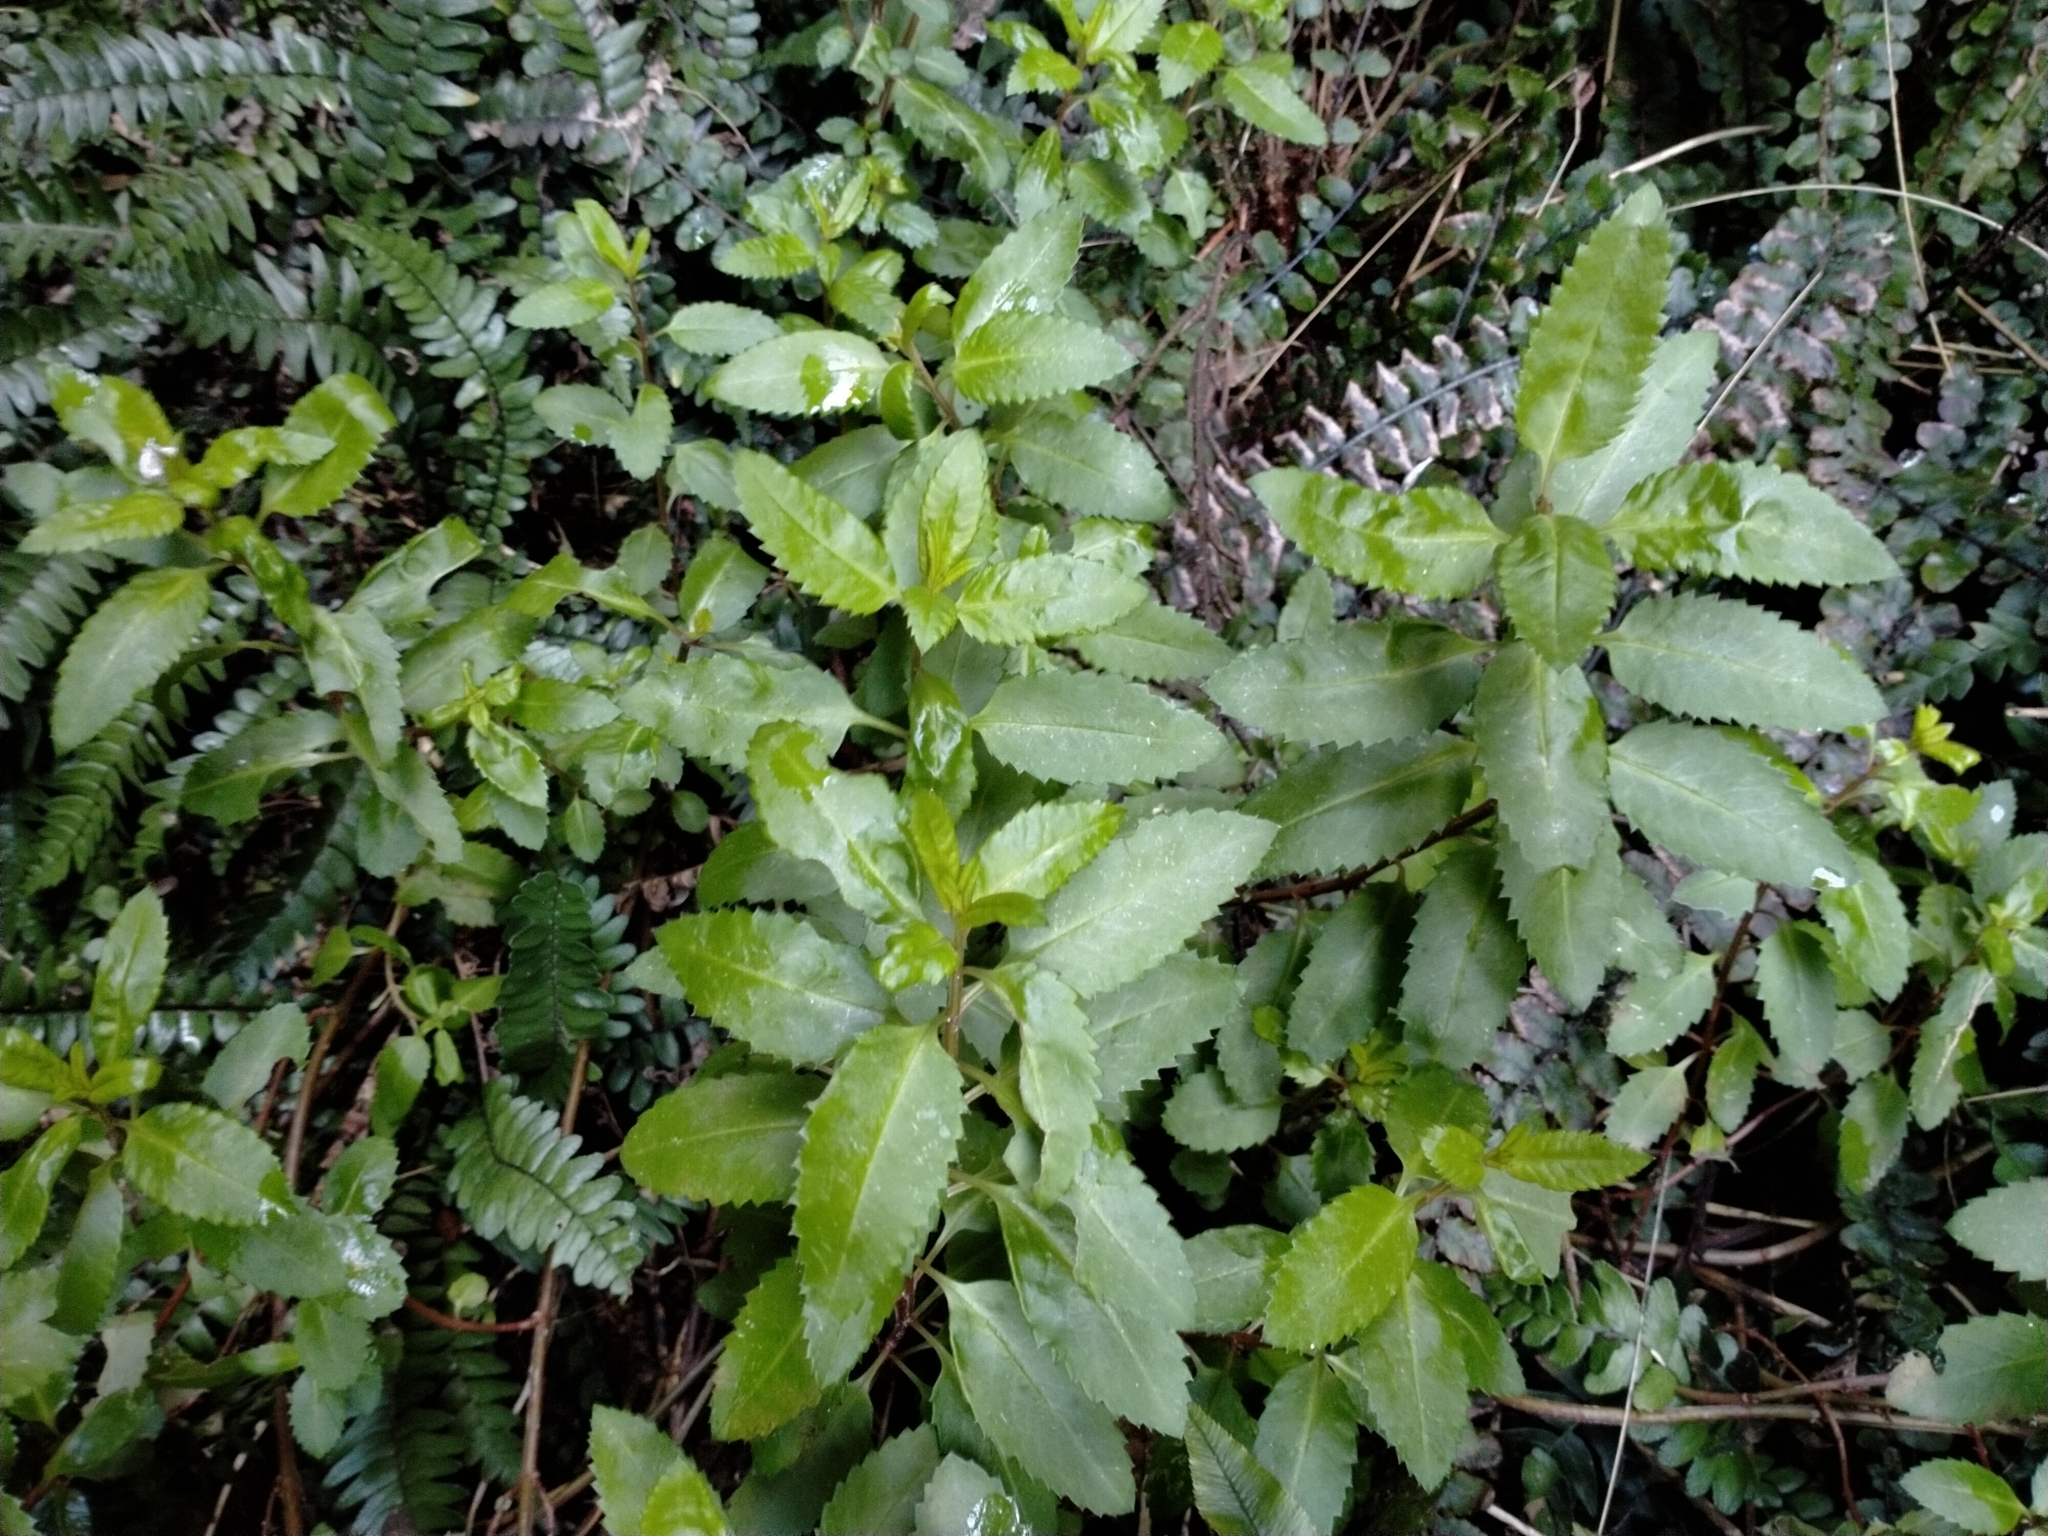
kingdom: Plantae
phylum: Tracheophyta
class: Magnoliopsida
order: Saxifragales
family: Haloragaceae
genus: Haloragis
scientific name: Haloragis erecta
